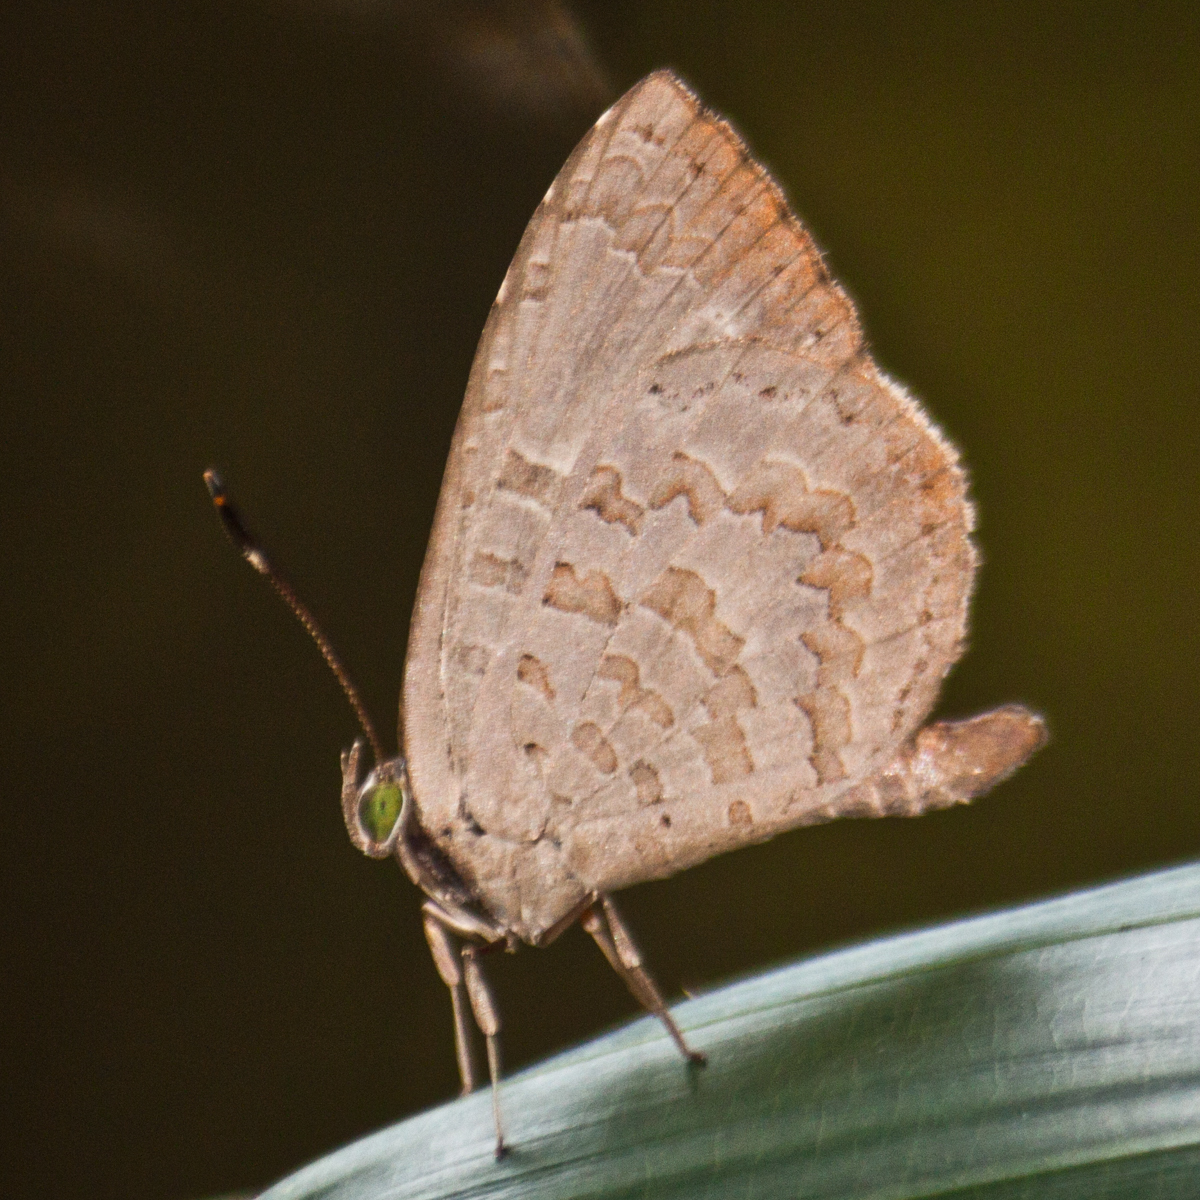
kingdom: Animalia
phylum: Arthropoda
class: Insecta
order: Lepidoptera
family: Lycaenidae
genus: Miletus
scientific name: Miletus chinensis
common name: Common brownie
